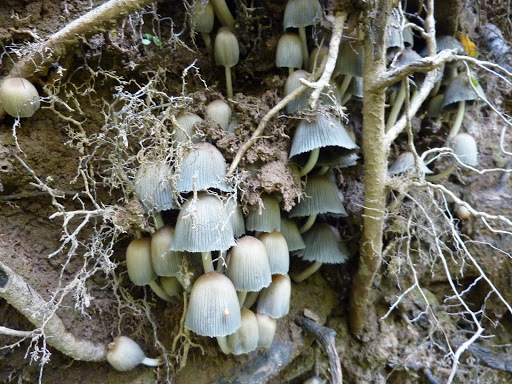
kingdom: Fungi
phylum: Basidiomycota
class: Agaricomycetes
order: Agaricales
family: Psathyrellaceae
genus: Coprinellus
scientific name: Coprinellus disseminatus
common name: Fairies' bonnets
